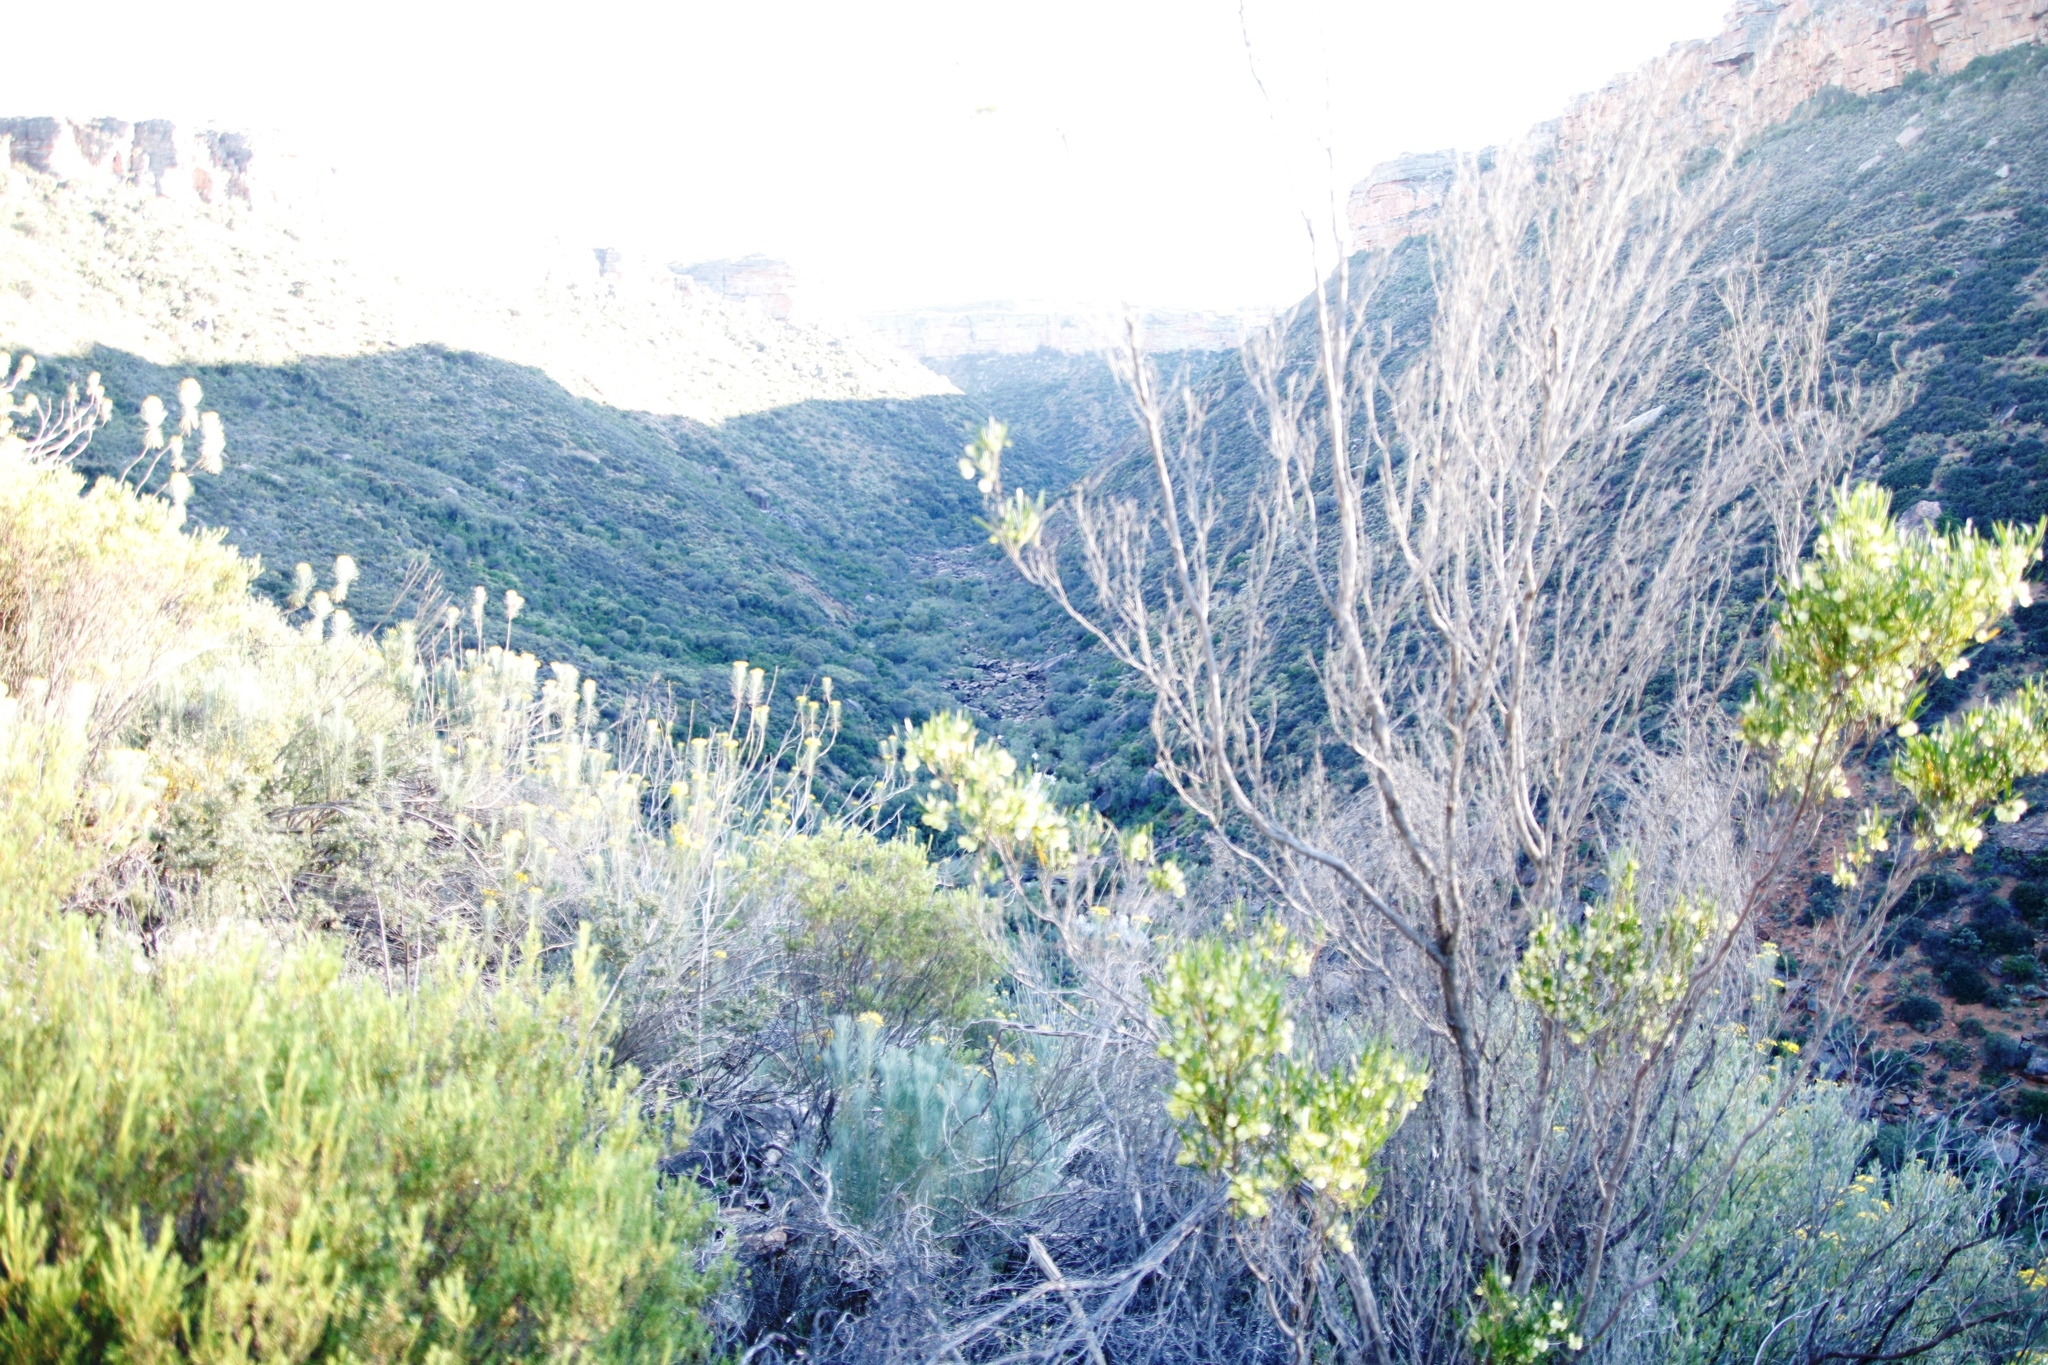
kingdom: Plantae
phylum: Tracheophyta
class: Magnoliopsida
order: Sapindales
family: Sapindaceae
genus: Dodonaea
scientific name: Dodonaea viscosa
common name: Hopbush
